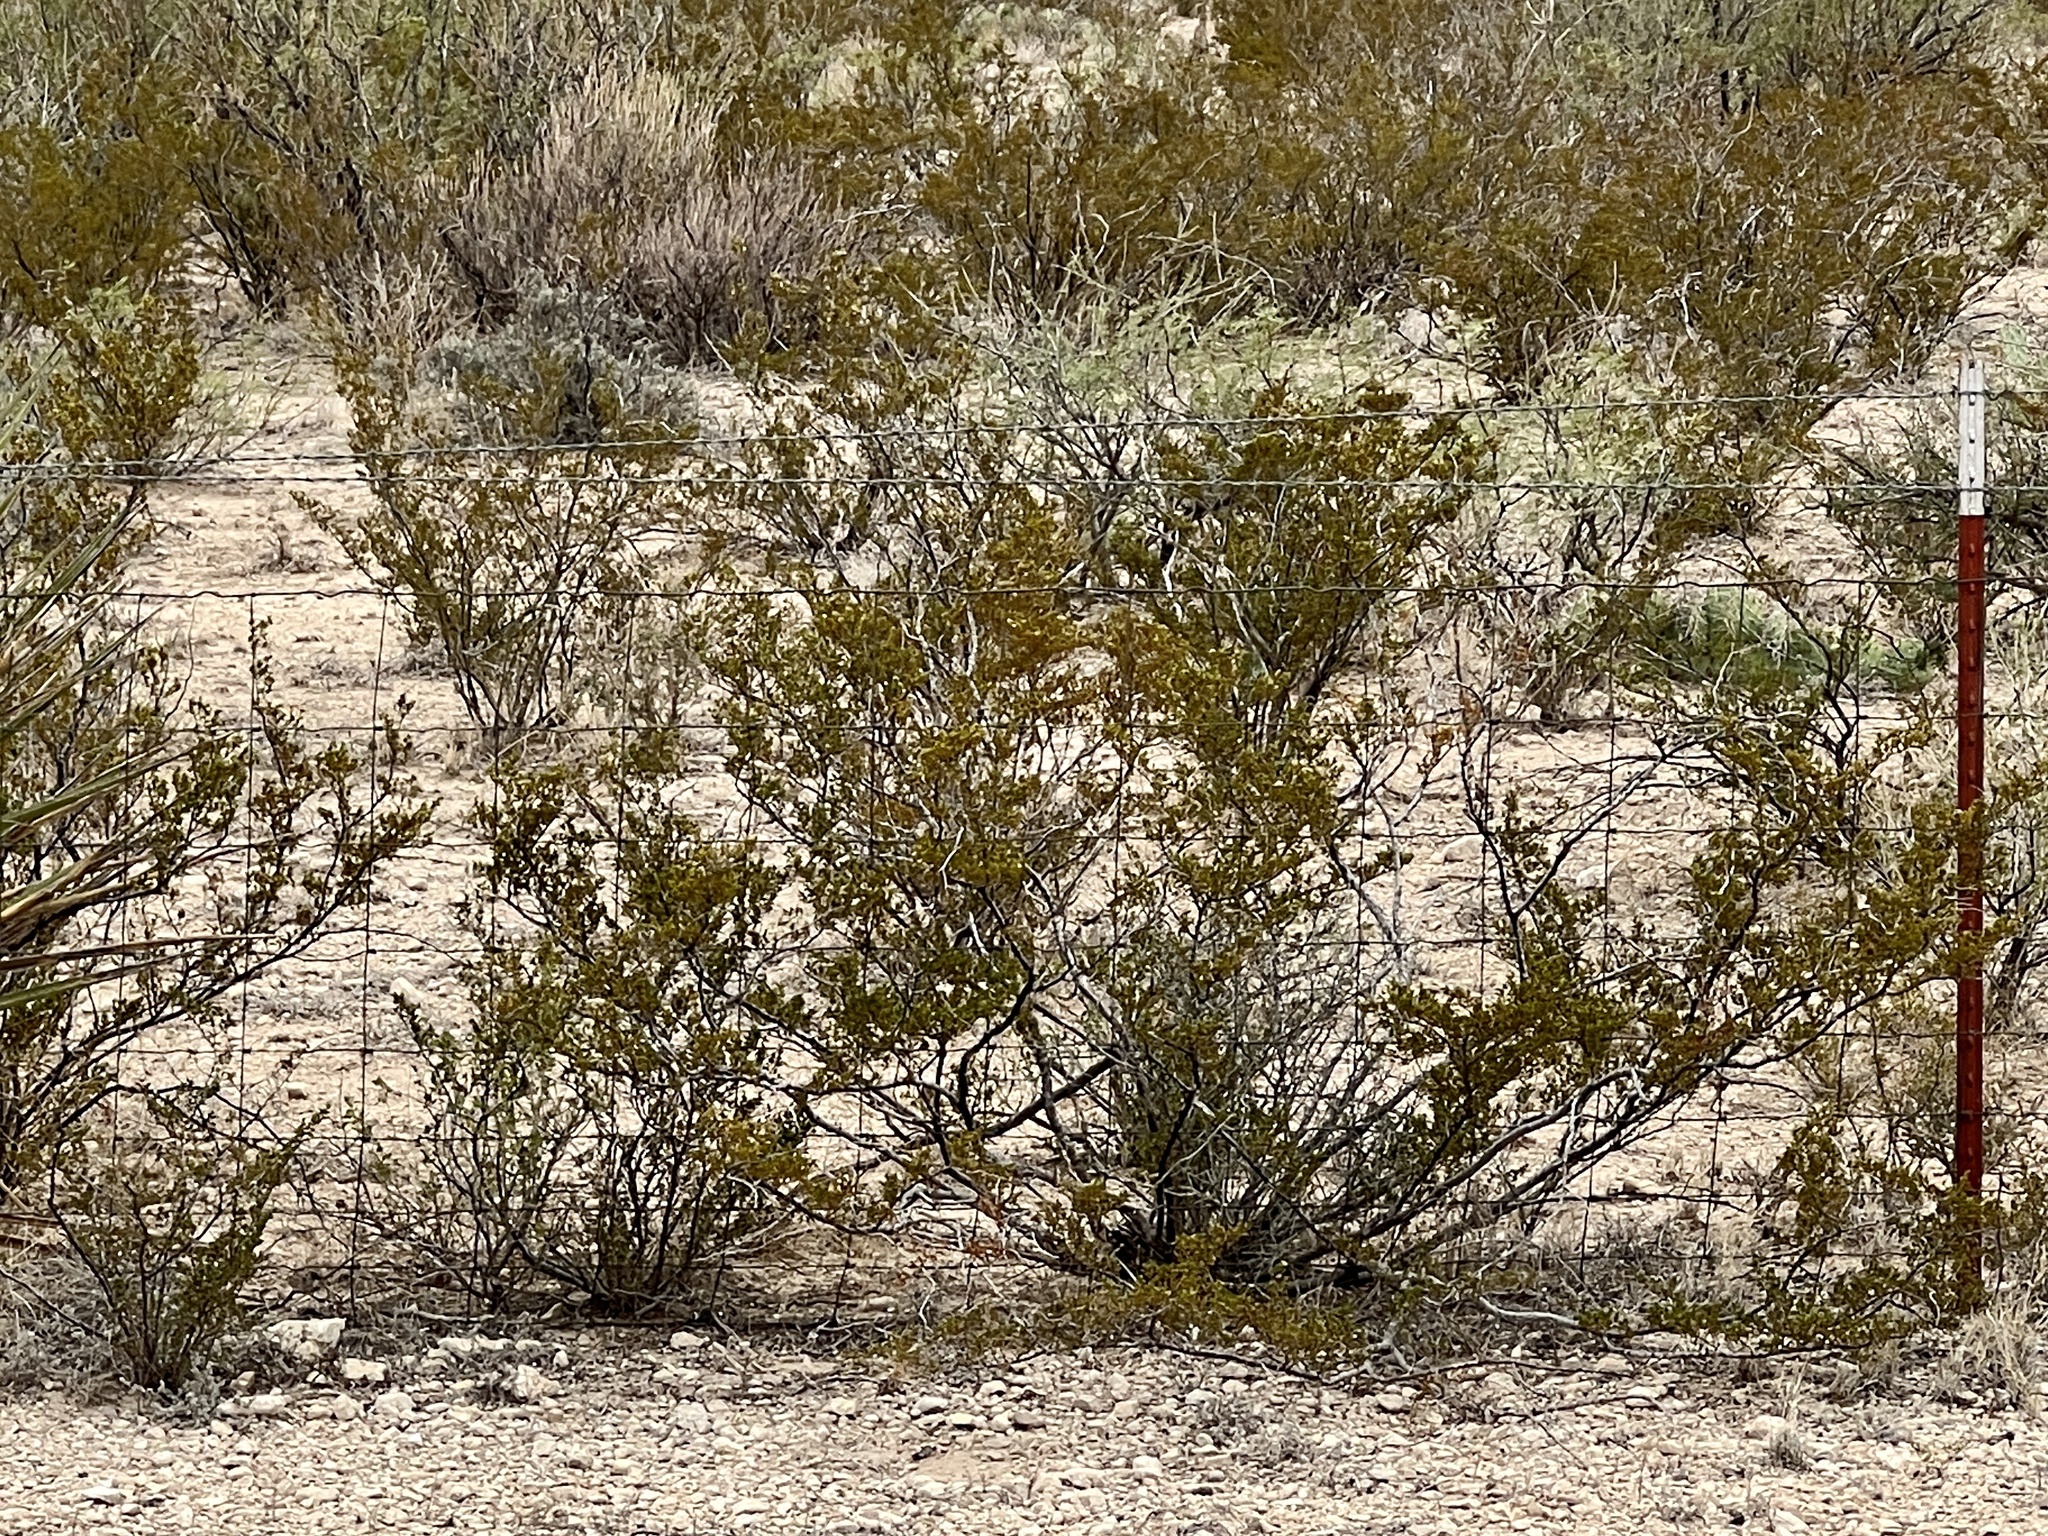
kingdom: Plantae
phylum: Tracheophyta
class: Magnoliopsida
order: Zygophyllales
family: Zygophyllaceae
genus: Larrea
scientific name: Larrea tridentata
